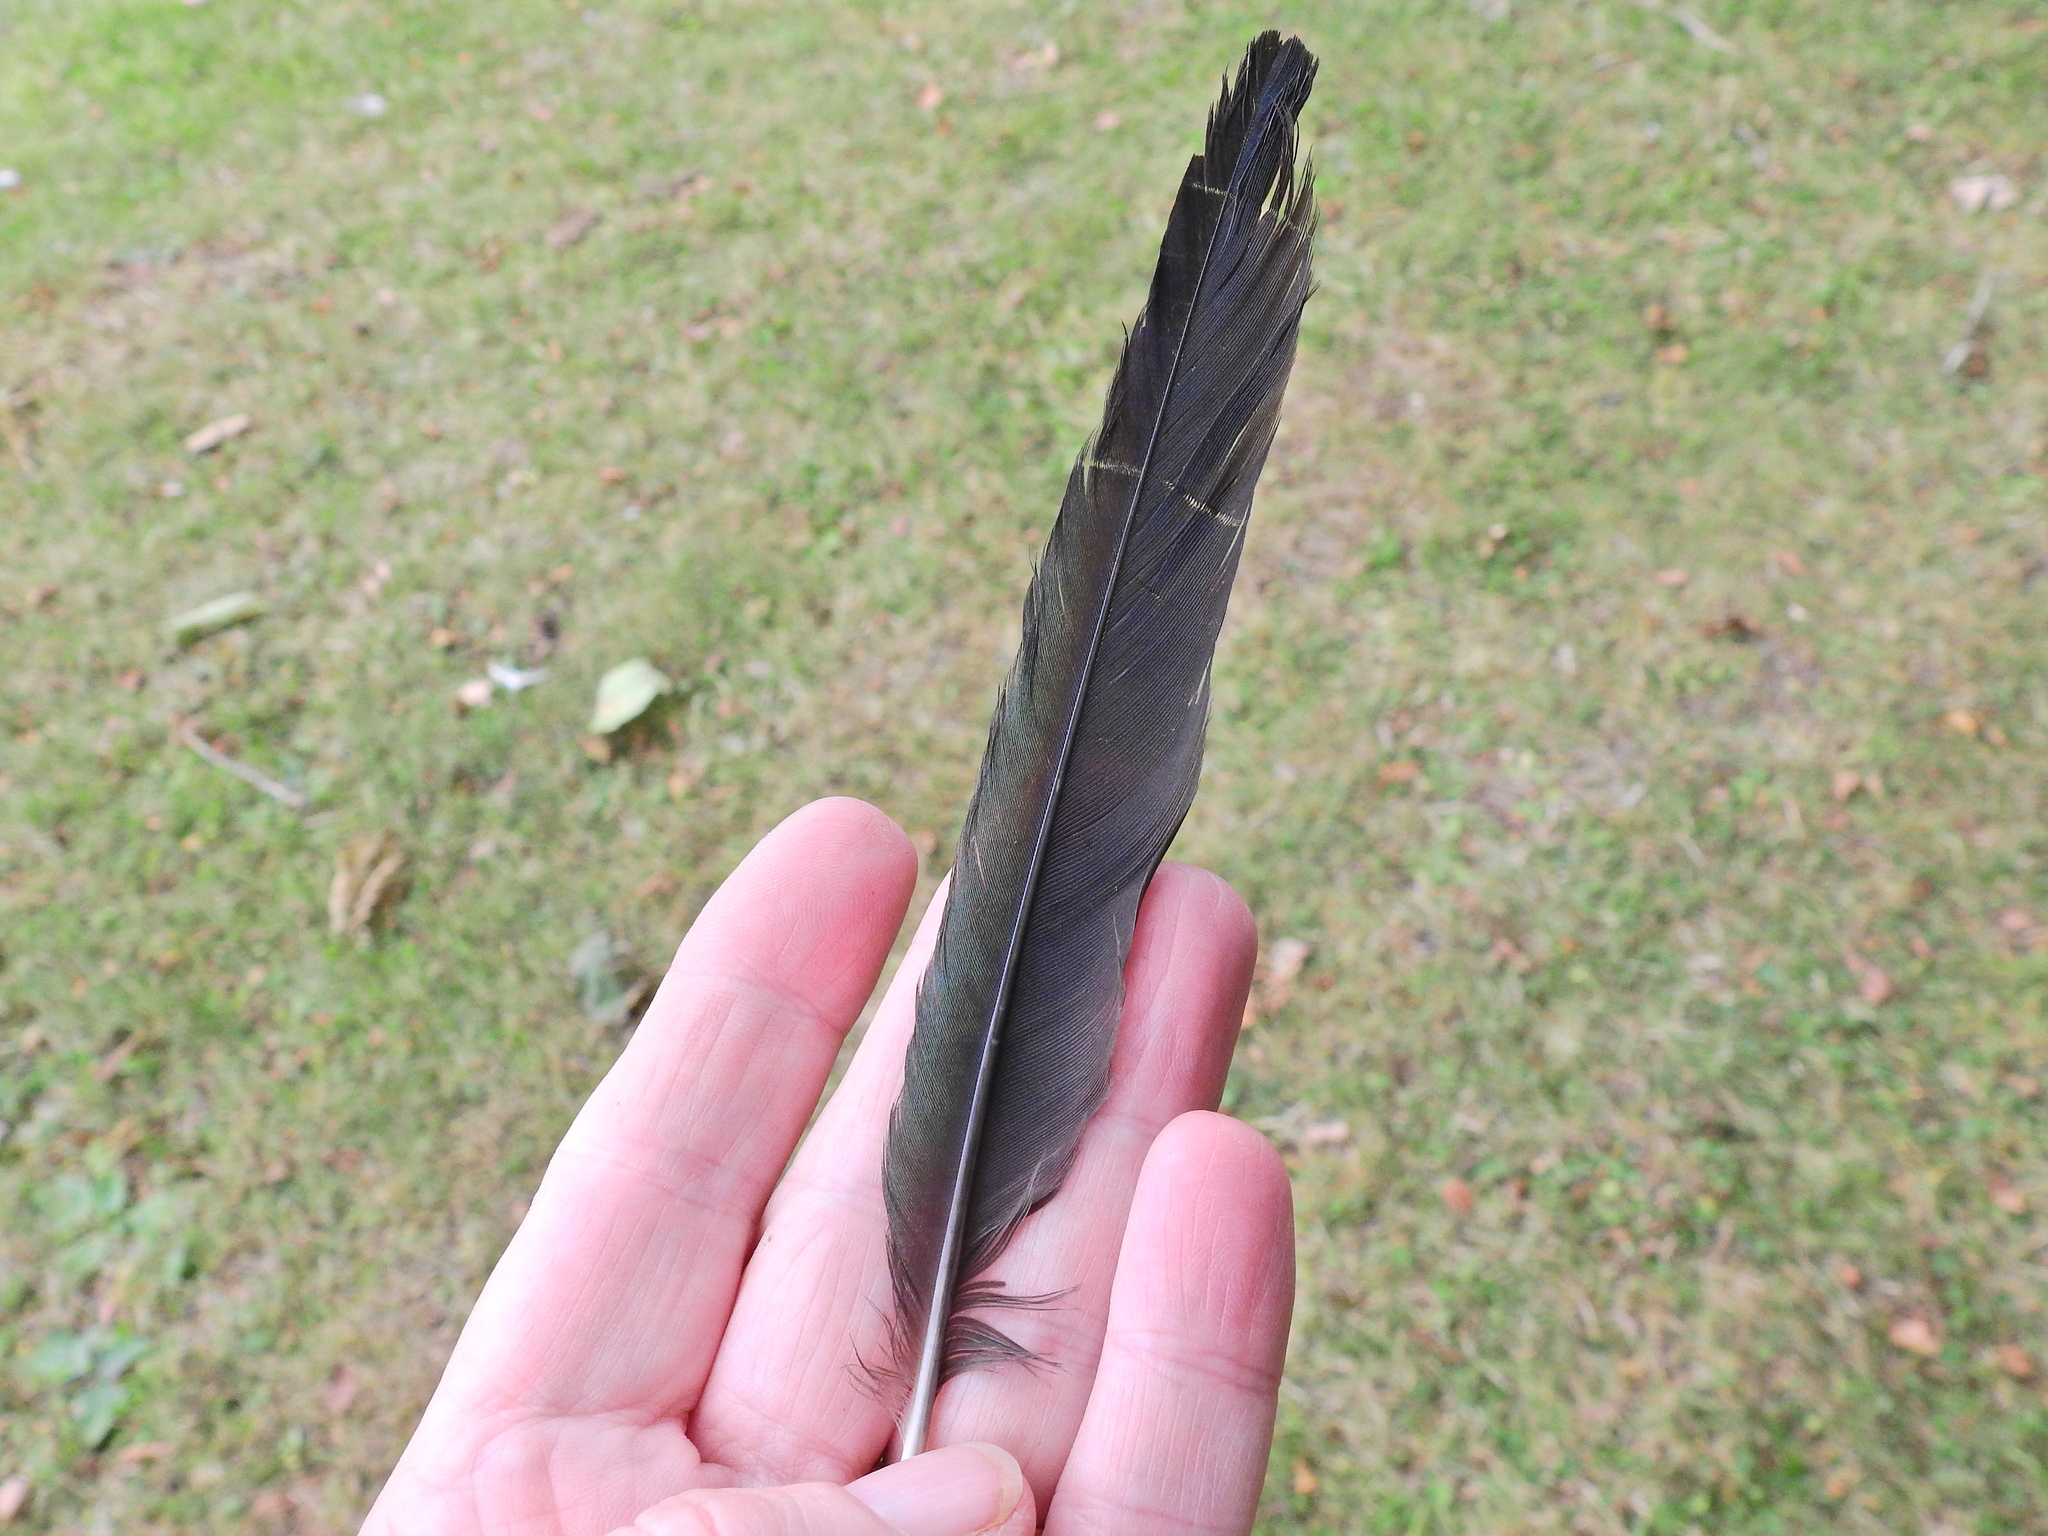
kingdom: Animalia
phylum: Chordata
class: Aves
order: Passeriformes
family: Corvidae
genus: Pica
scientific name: Pica pica
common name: Eurasian magpie
